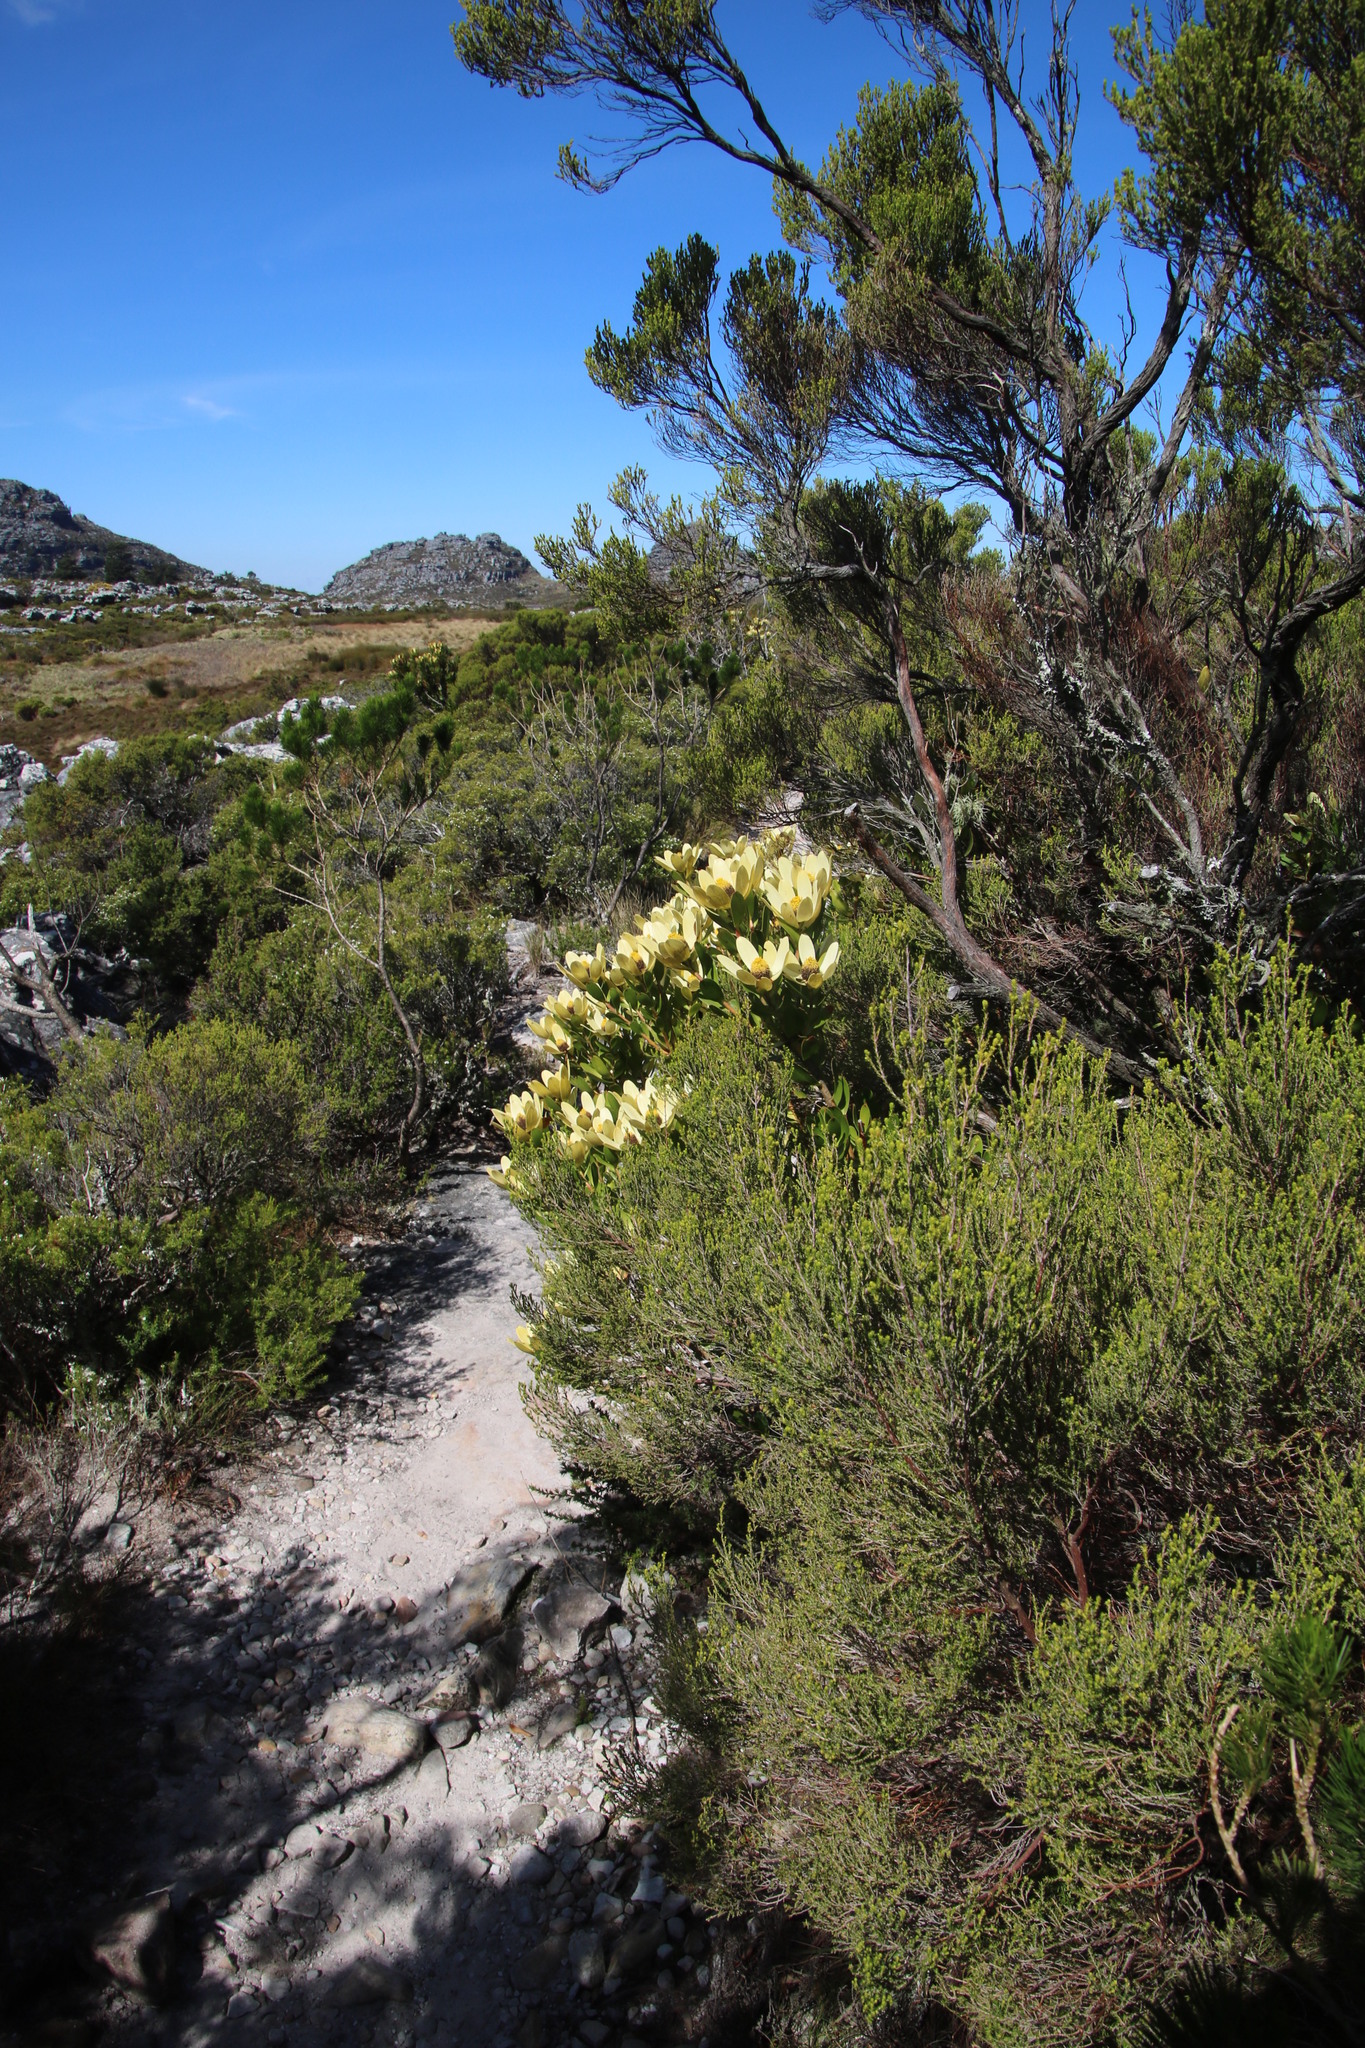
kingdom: Plantae
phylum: Tracheophyta
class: Magnoliopsida
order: Proteales
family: Proteaceae
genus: Leucadendron
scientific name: Leucadendron strobilinum
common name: Mountain rose
